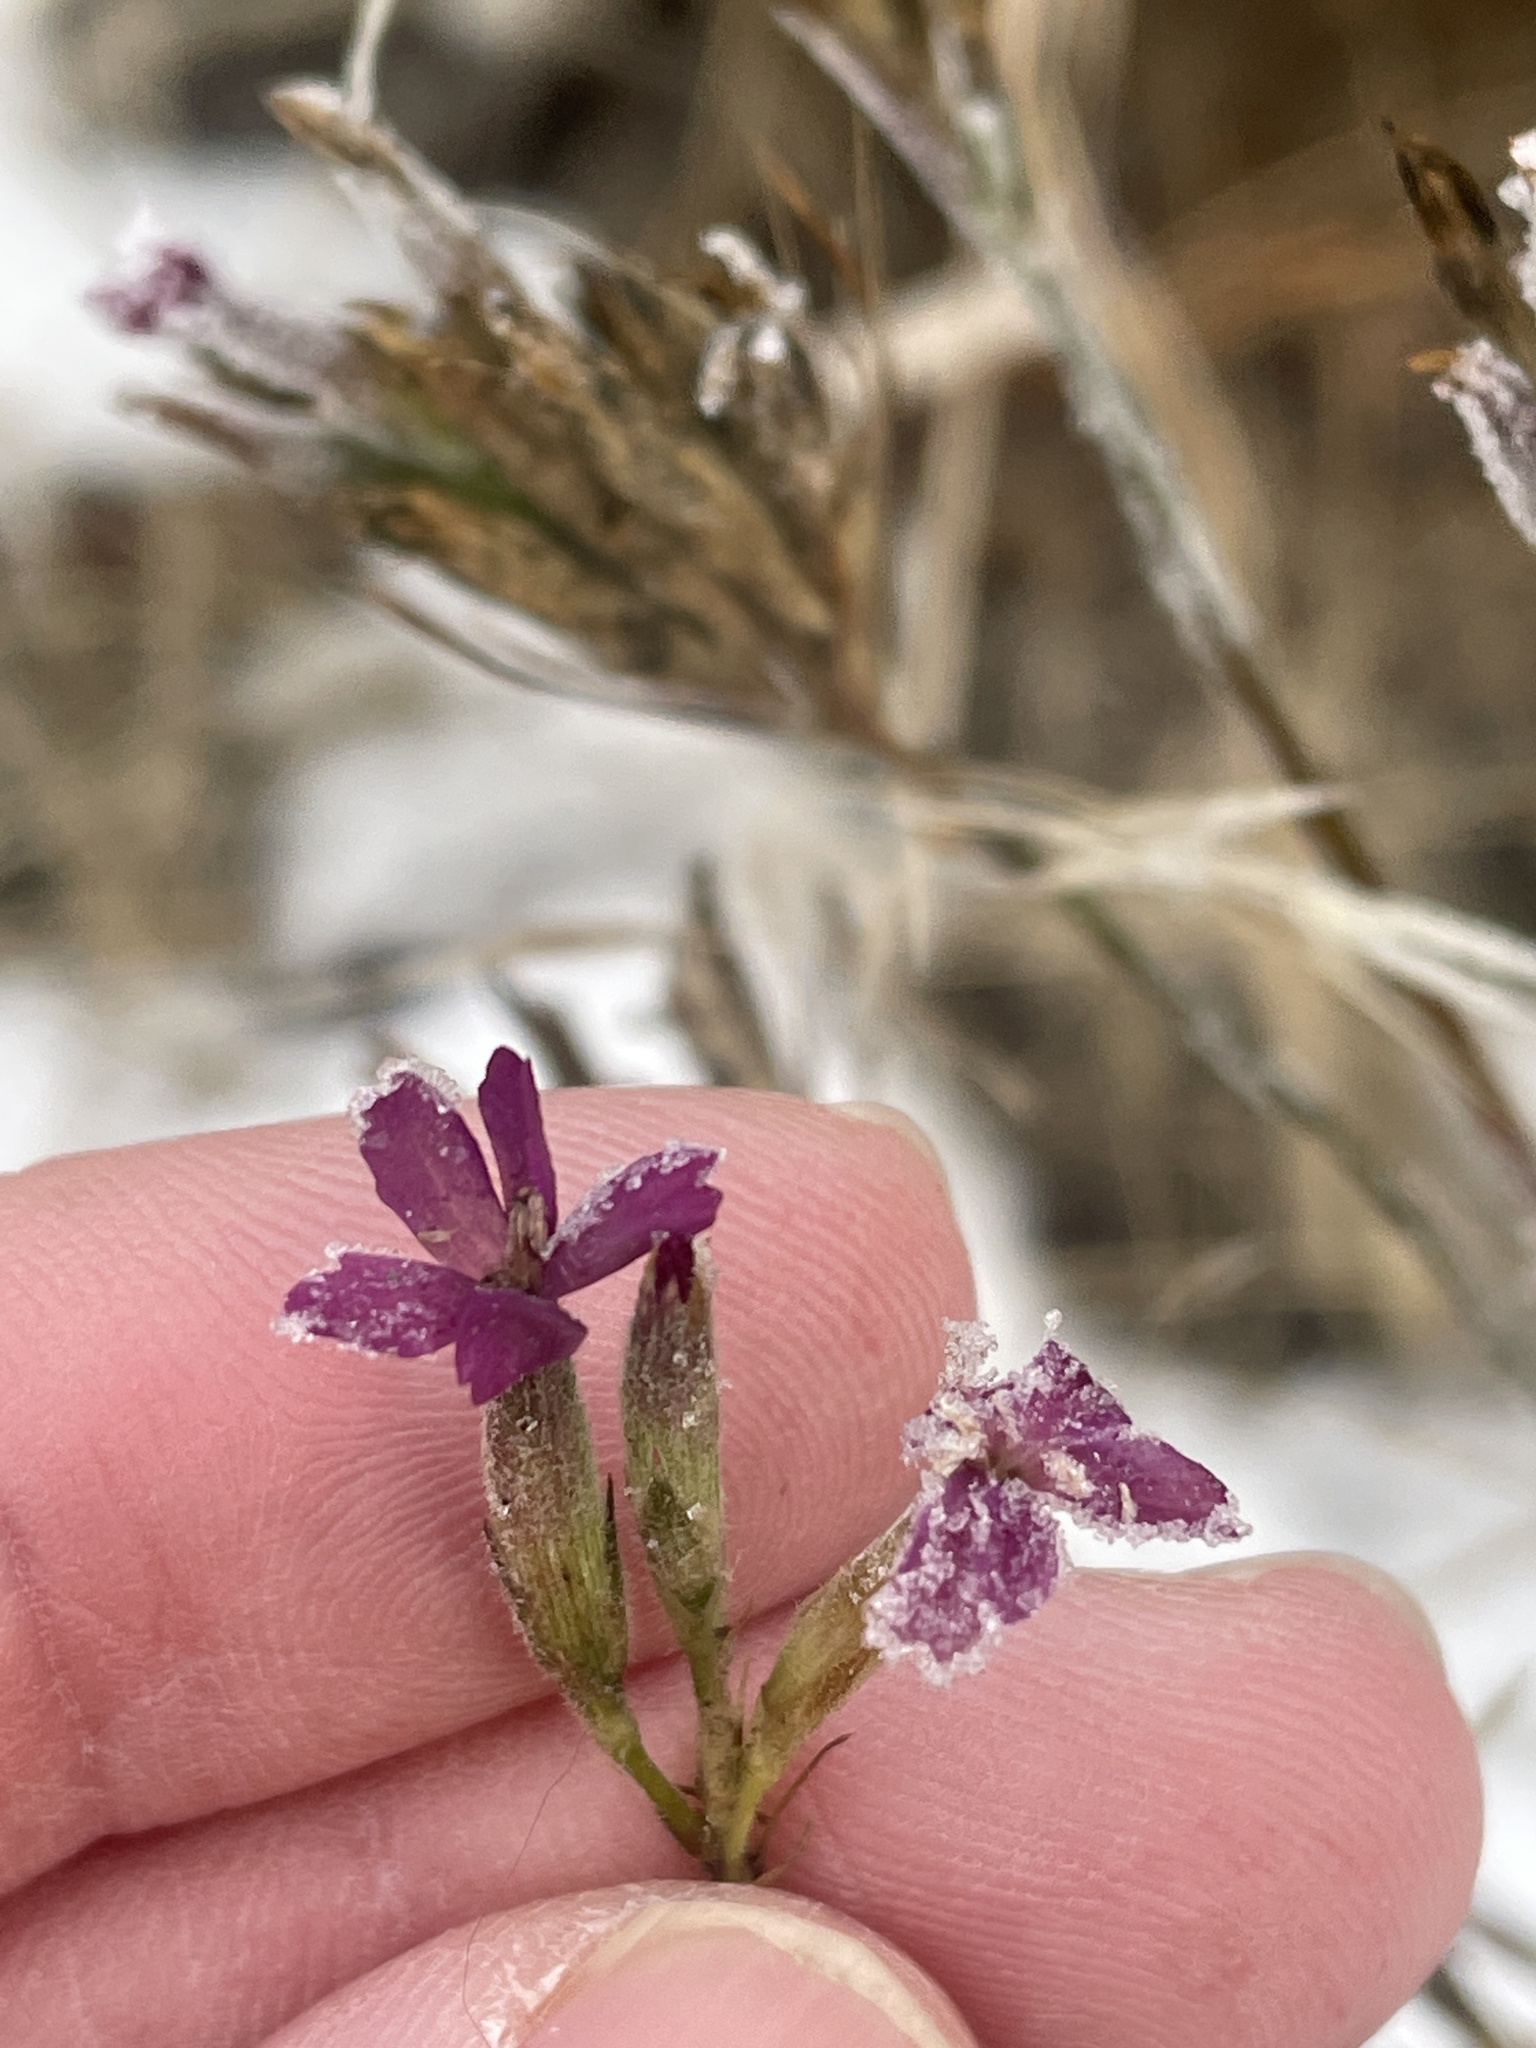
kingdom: Plantae
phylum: Tracheophyta
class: Magnoliopsida
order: Caryophyllales
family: Caryophyllaceae
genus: Dianthus
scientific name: Dianthus armeria
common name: Deptford pink
